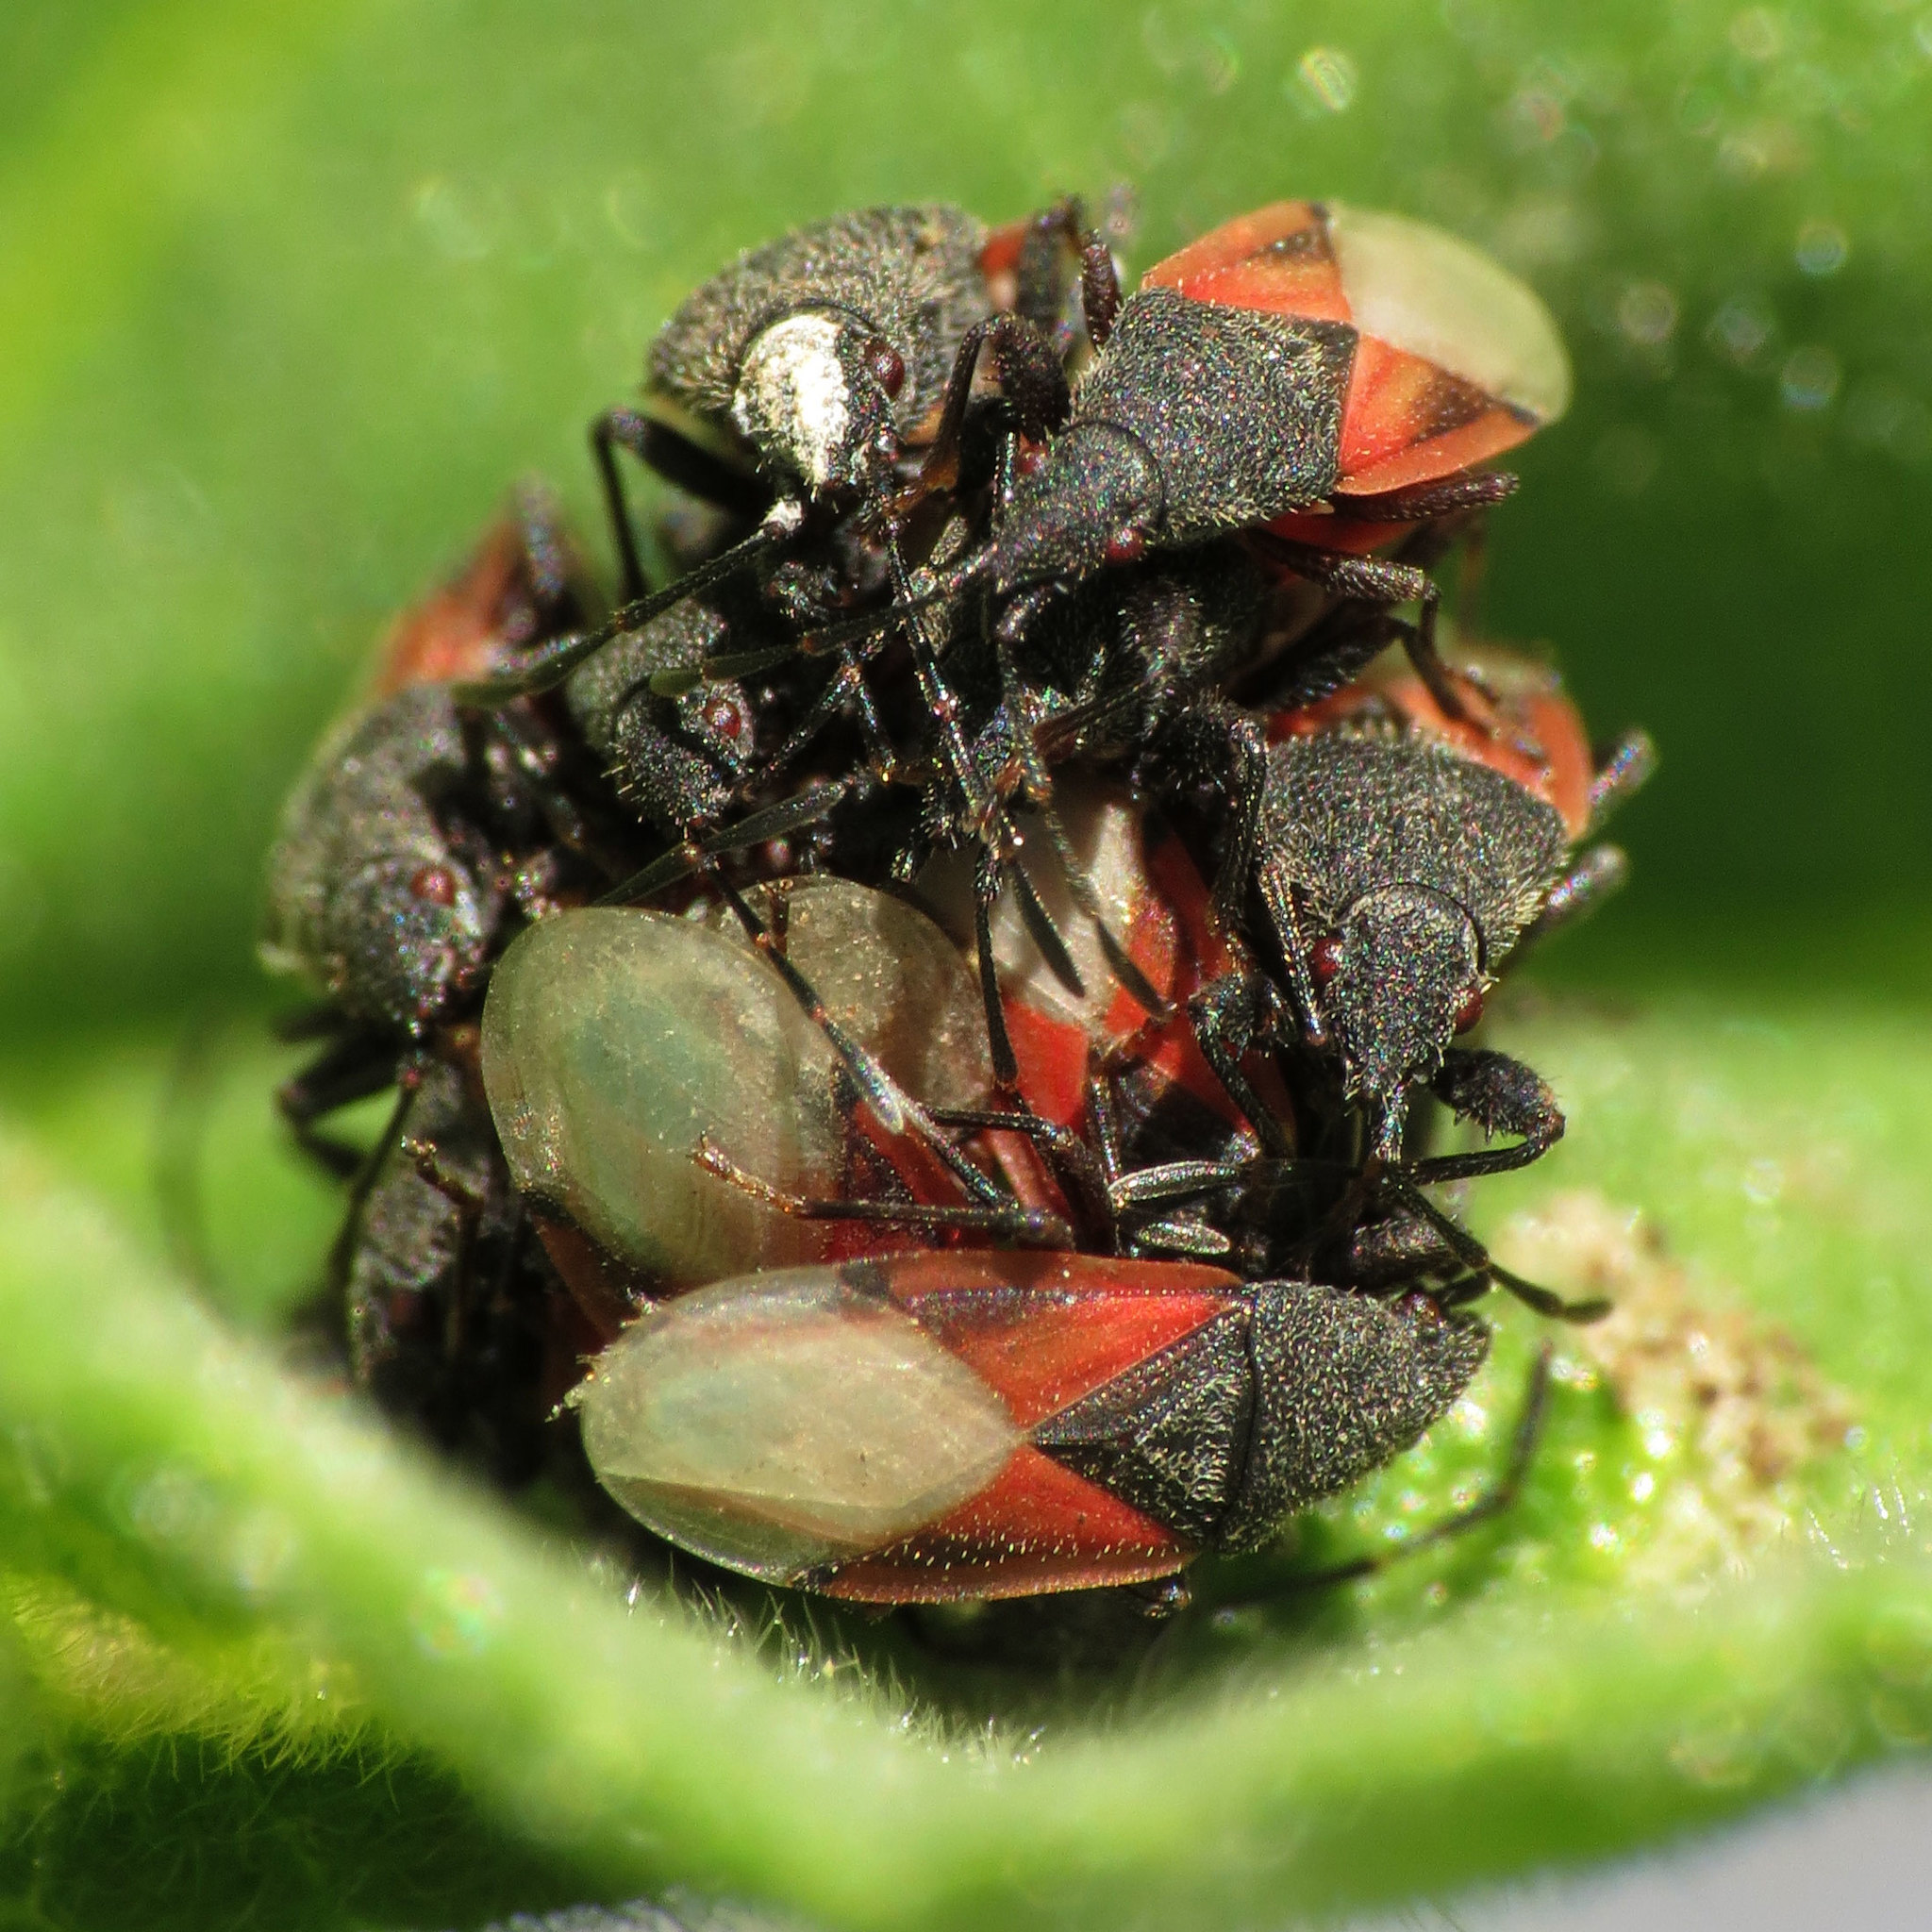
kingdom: Animalia
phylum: Arthropoda
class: Insecta
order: Hemiptera
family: Oxycarenidae
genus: Oxycarenus
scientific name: Oxycarenus lavaterae
